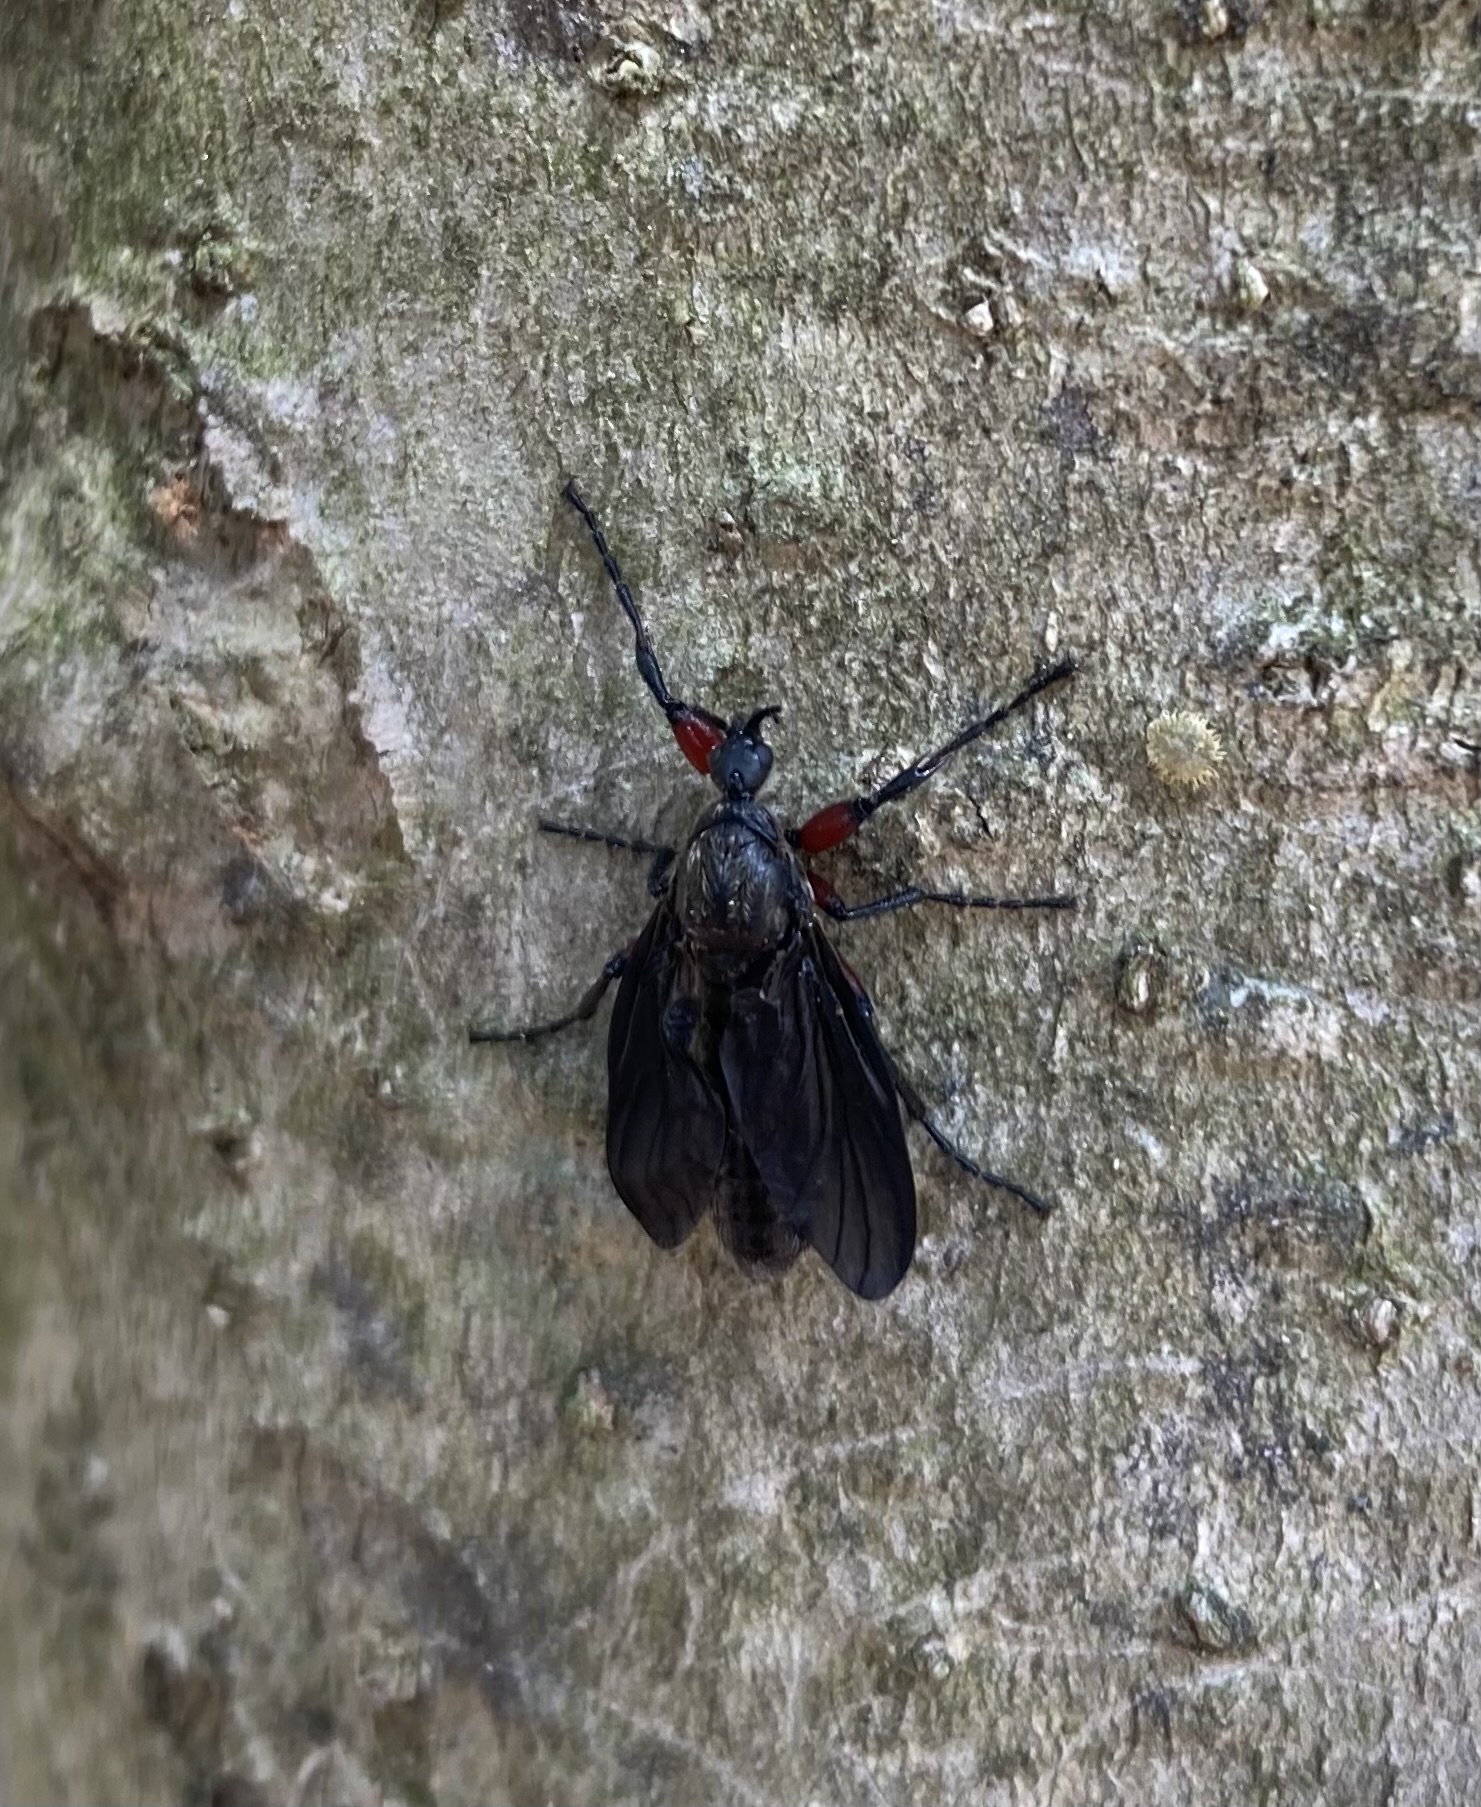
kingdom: Animalia
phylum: Arthropoda
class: Insecta
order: Diptera
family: Bibionidae
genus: Bibio
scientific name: Bibio femoratus
